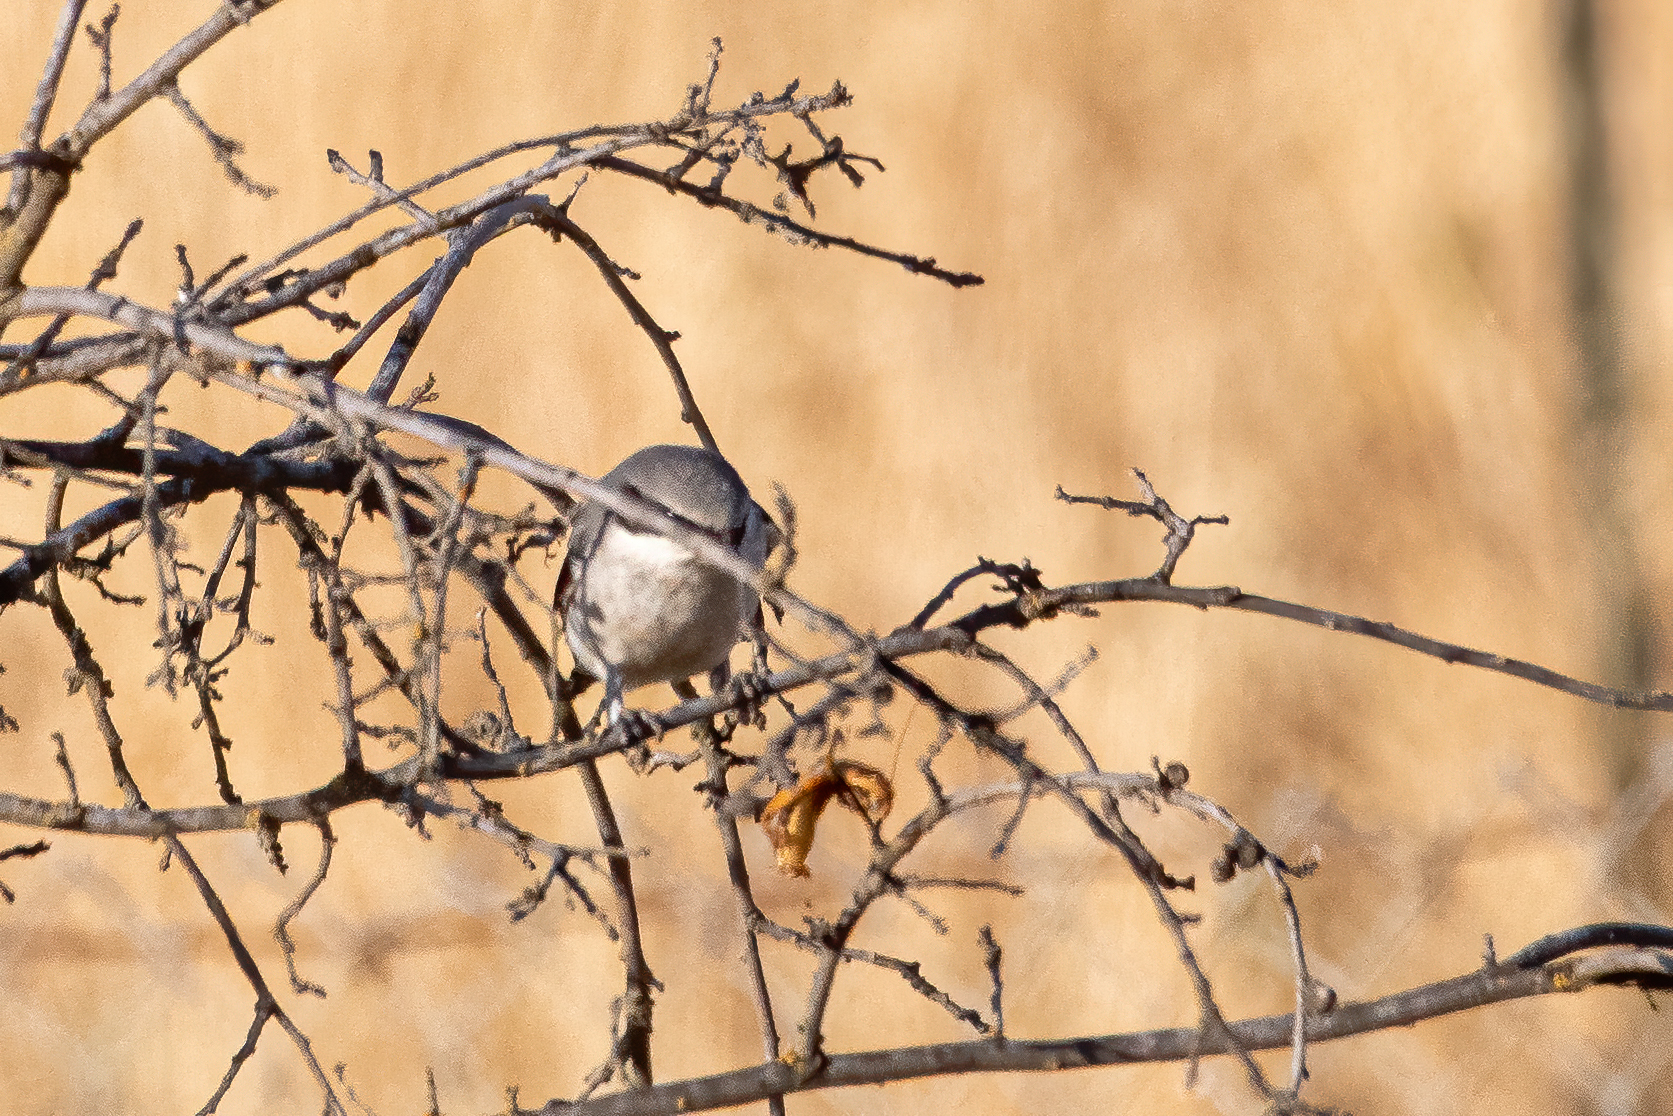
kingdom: Animalia
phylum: Chordata
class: Aves
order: Passeriformes
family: Laniidae
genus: Lanius
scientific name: Lanius ludovicianus
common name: Loggerhead shrike
